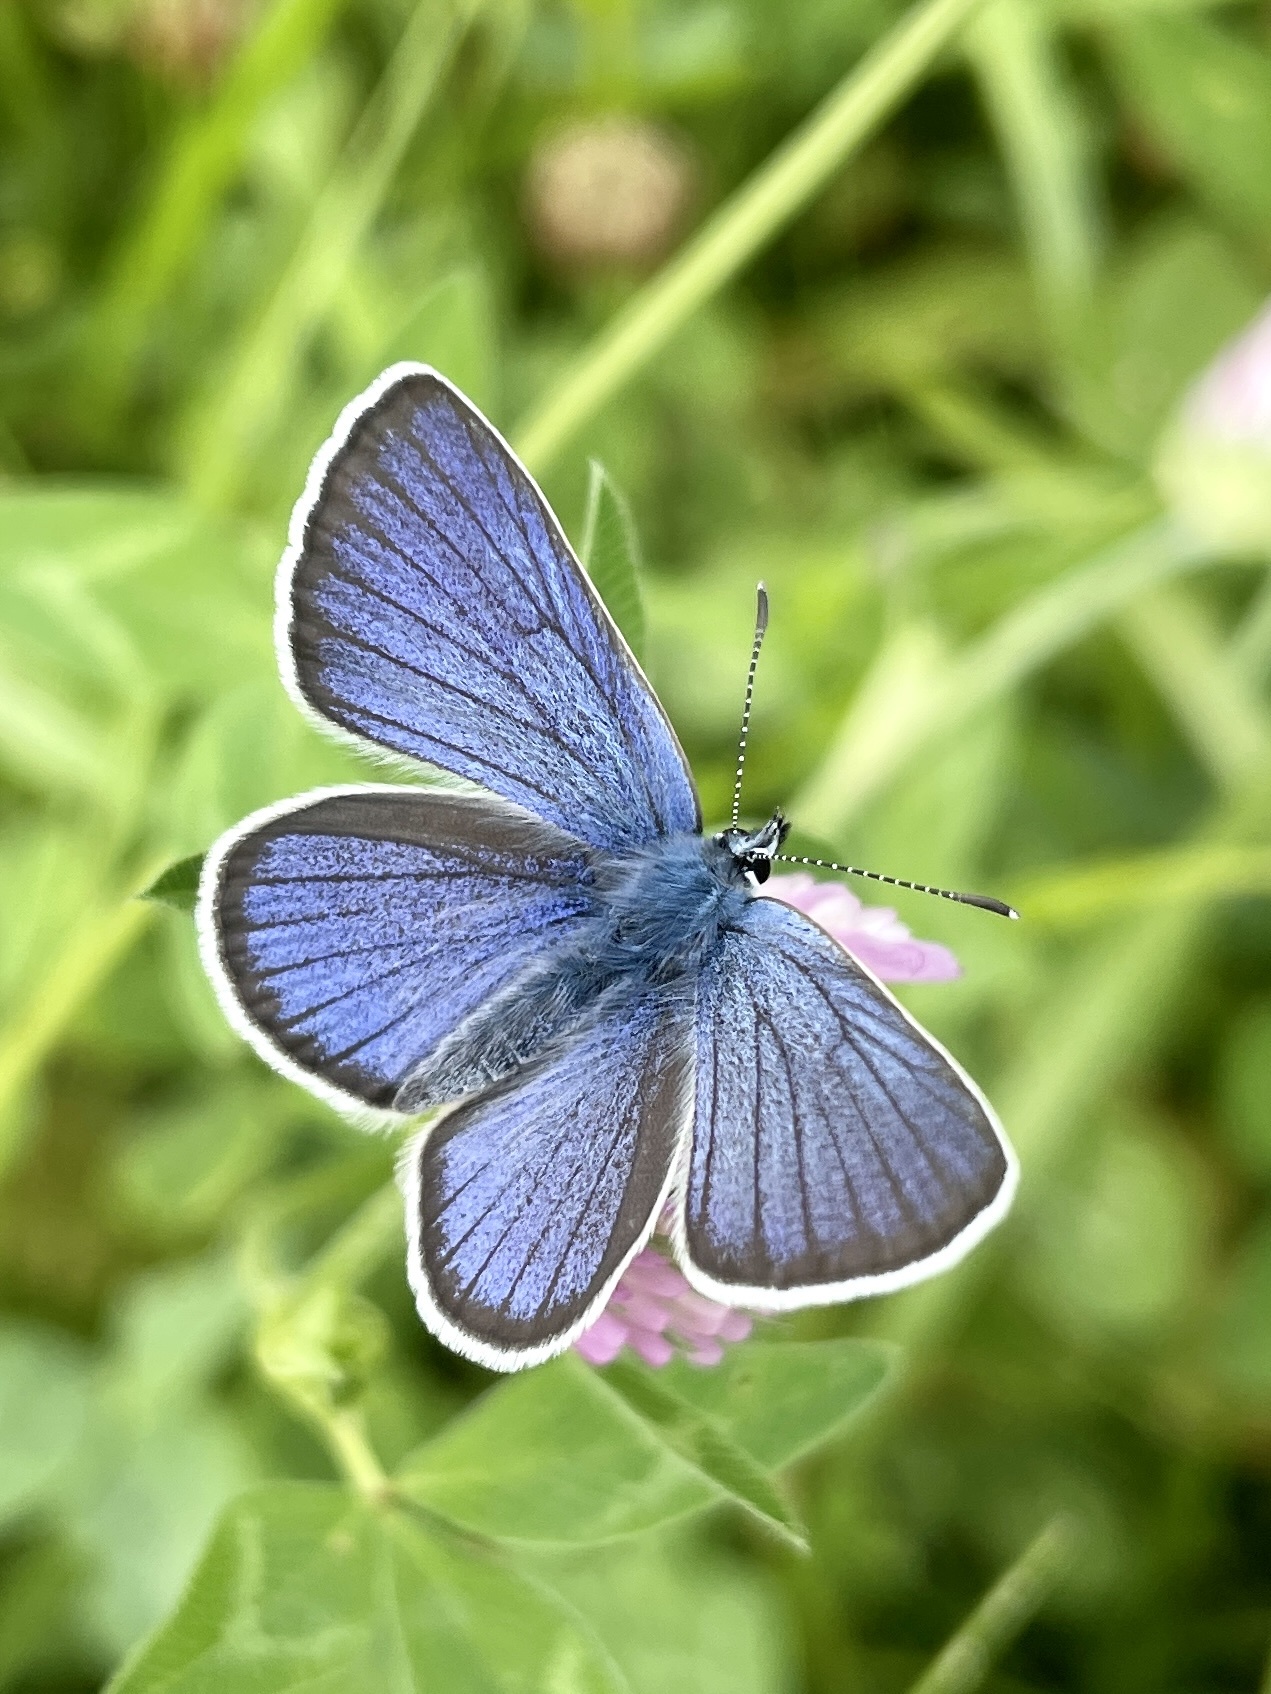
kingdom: Animalia
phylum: Arthropoda
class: Insecta
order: Lepidoptera
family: Lycaenidae
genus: Cyaniris
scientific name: Cyaniris semiargus
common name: Mazarine blue
